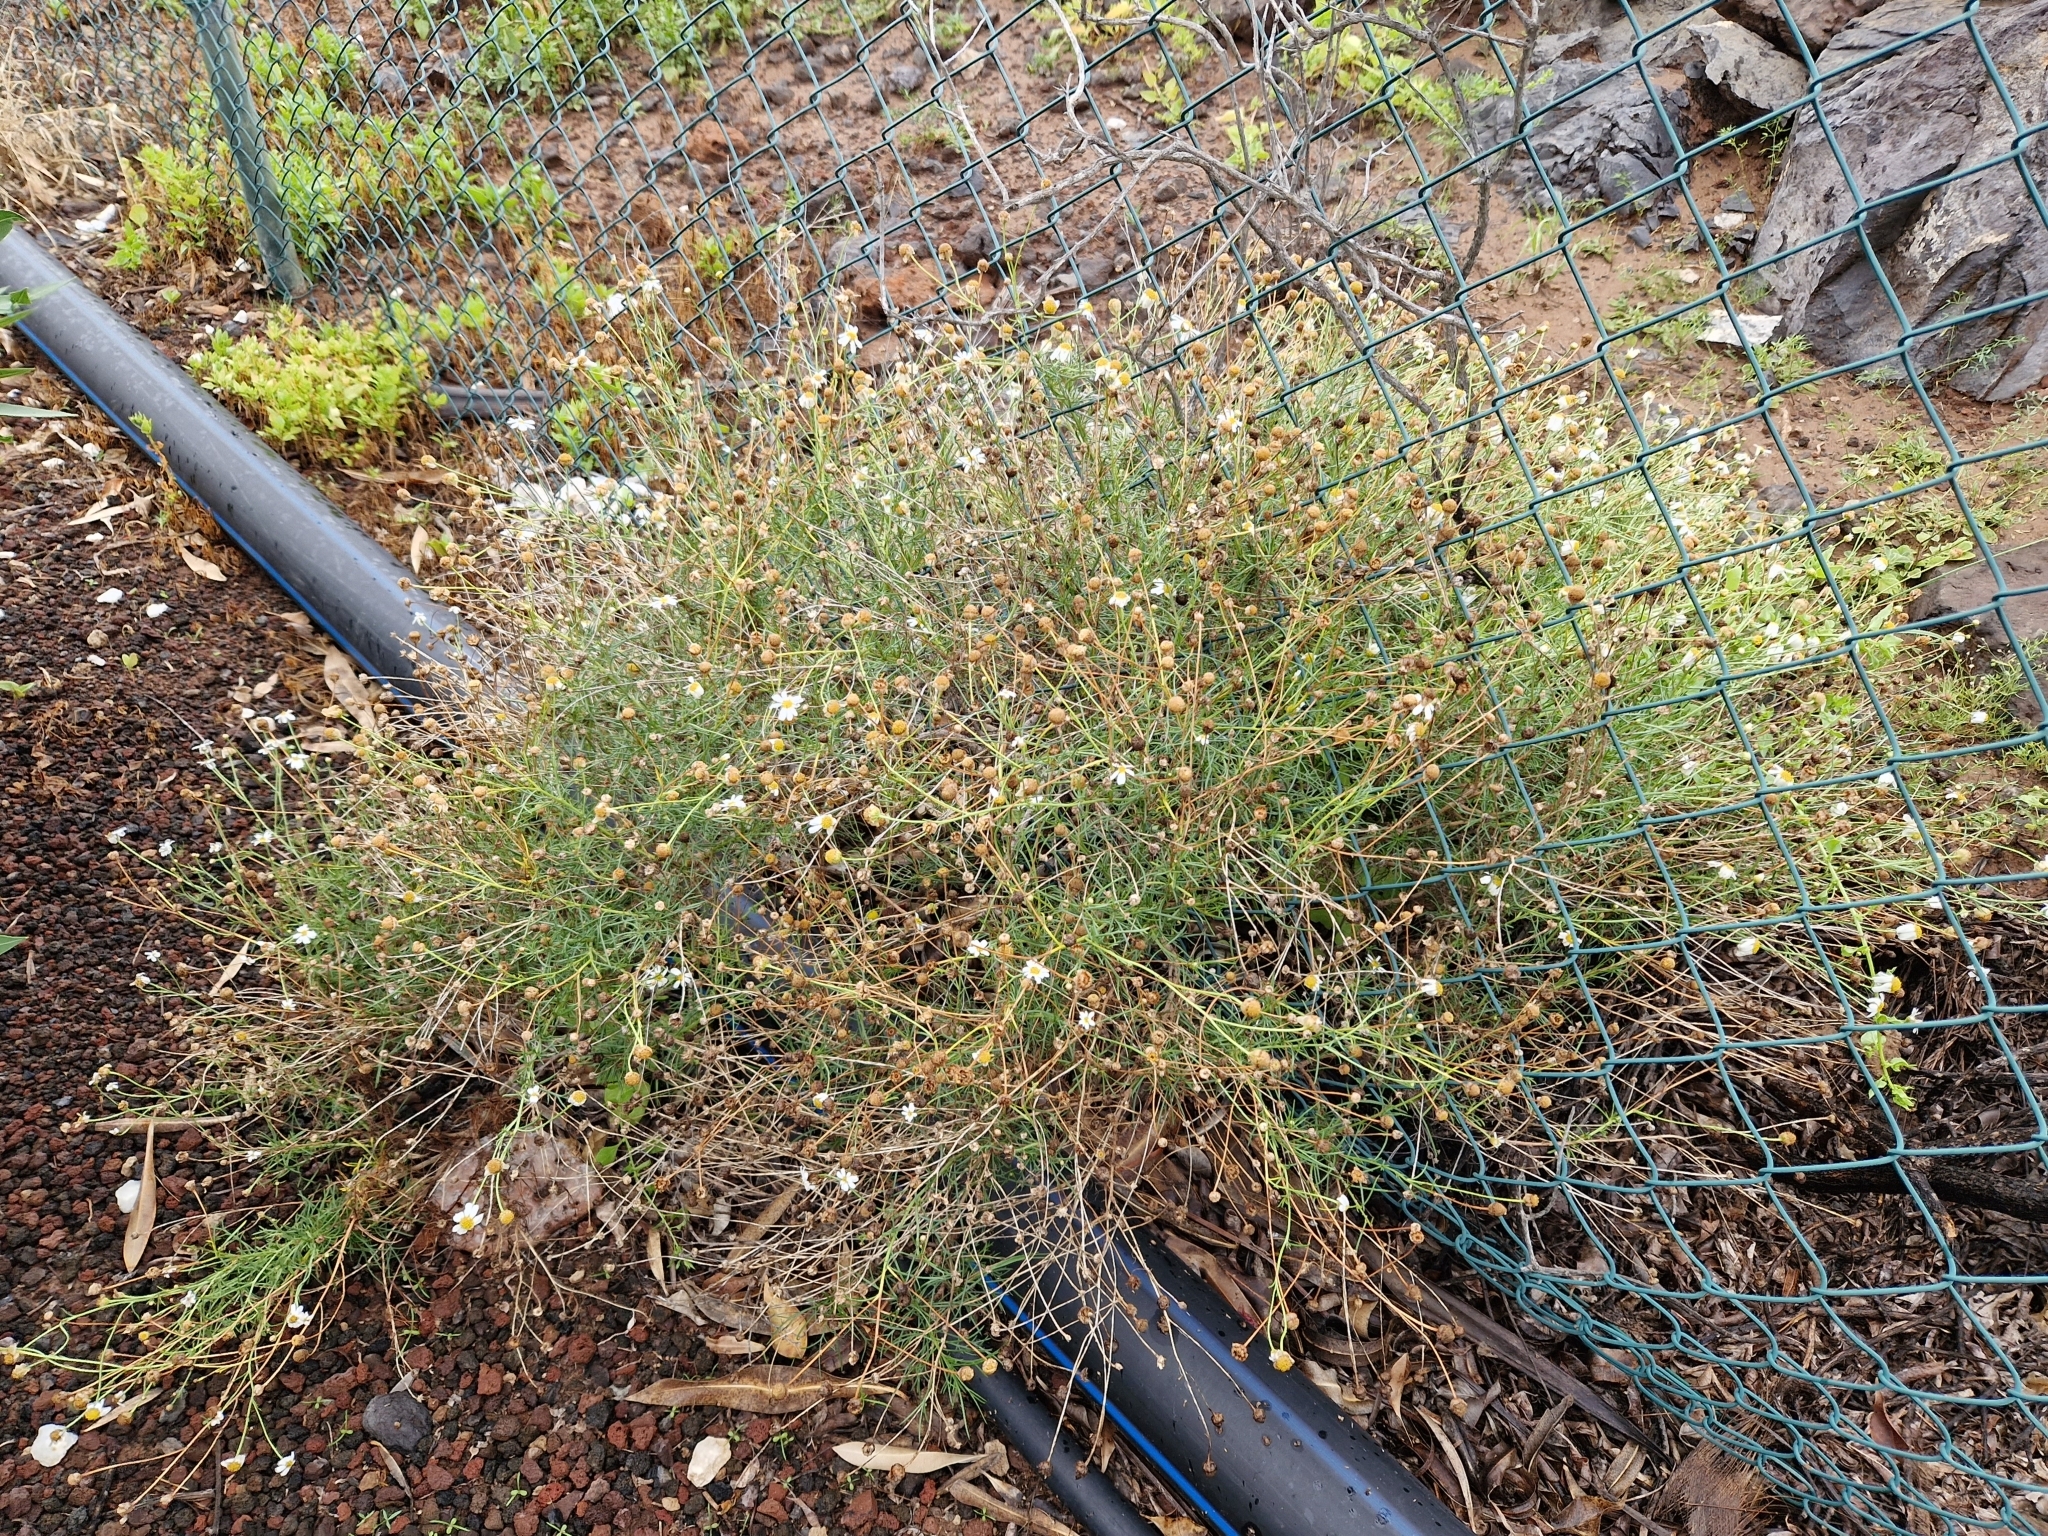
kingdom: Plantae
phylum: Tracheophyta
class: Magnoliopsida
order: Asterales
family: Asteraceae
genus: Argyranthemum
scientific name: Argyranthemum frutescens
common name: Paris daisy
